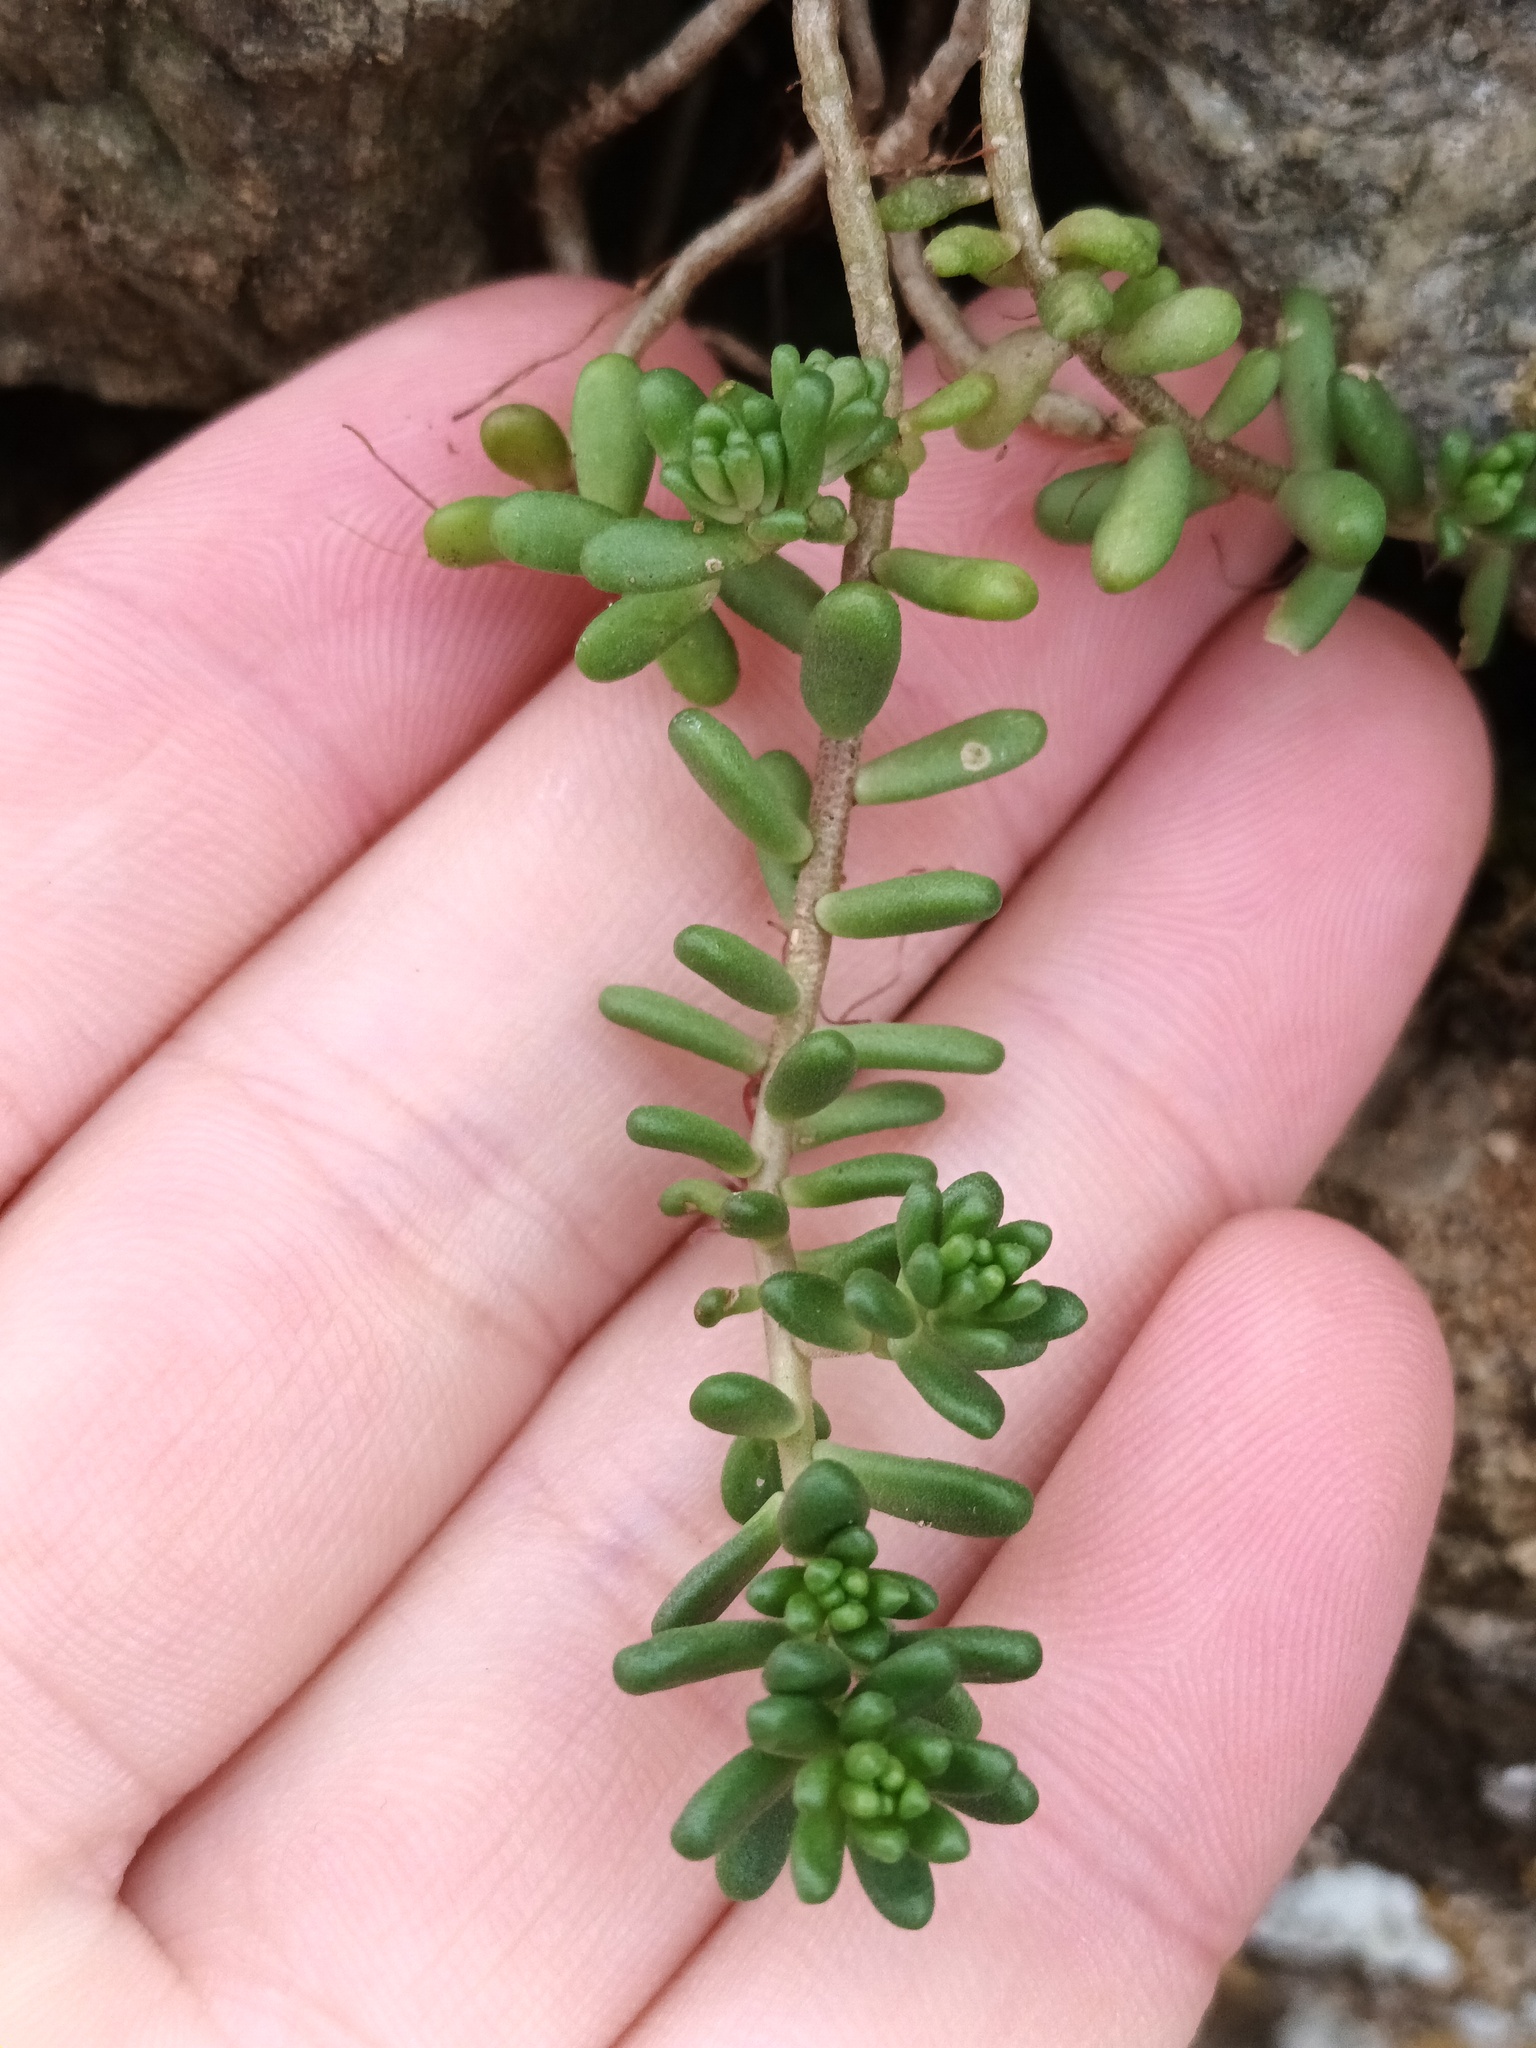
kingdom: Plantae
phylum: Tracheophyta
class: Magnoliopsida
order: Saxifragales
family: Crassulaceae
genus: Sedum
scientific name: Sedum album
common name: White stonecrop
